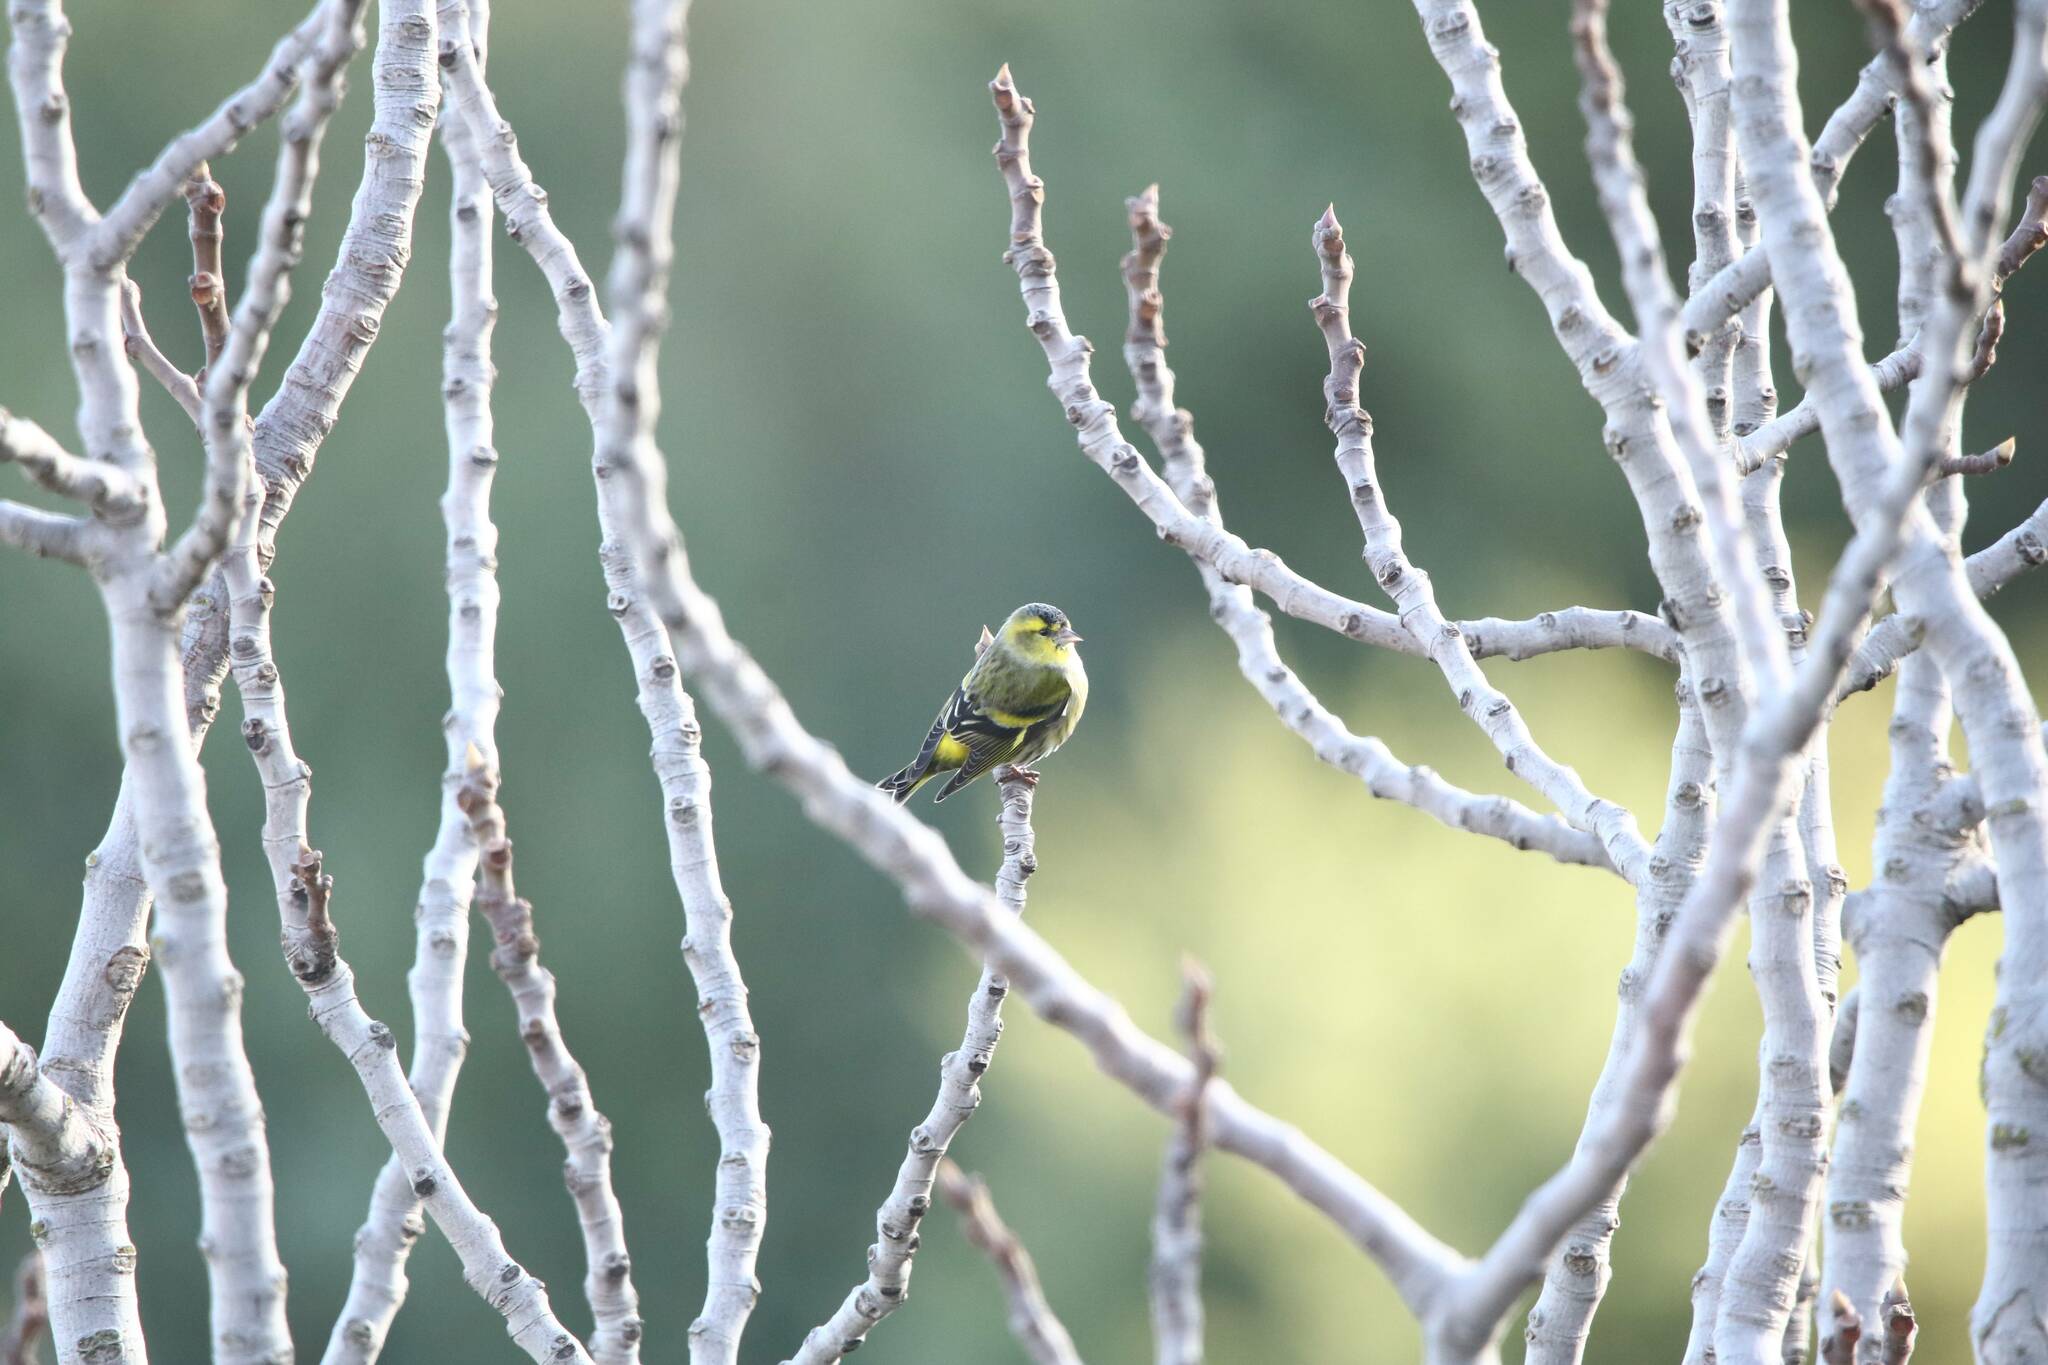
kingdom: Animalia
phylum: Chordata
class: Aves
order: Passeriformes
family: Fringillidae
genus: Spinus
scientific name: Spinus spinus
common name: Eurasian siskin
